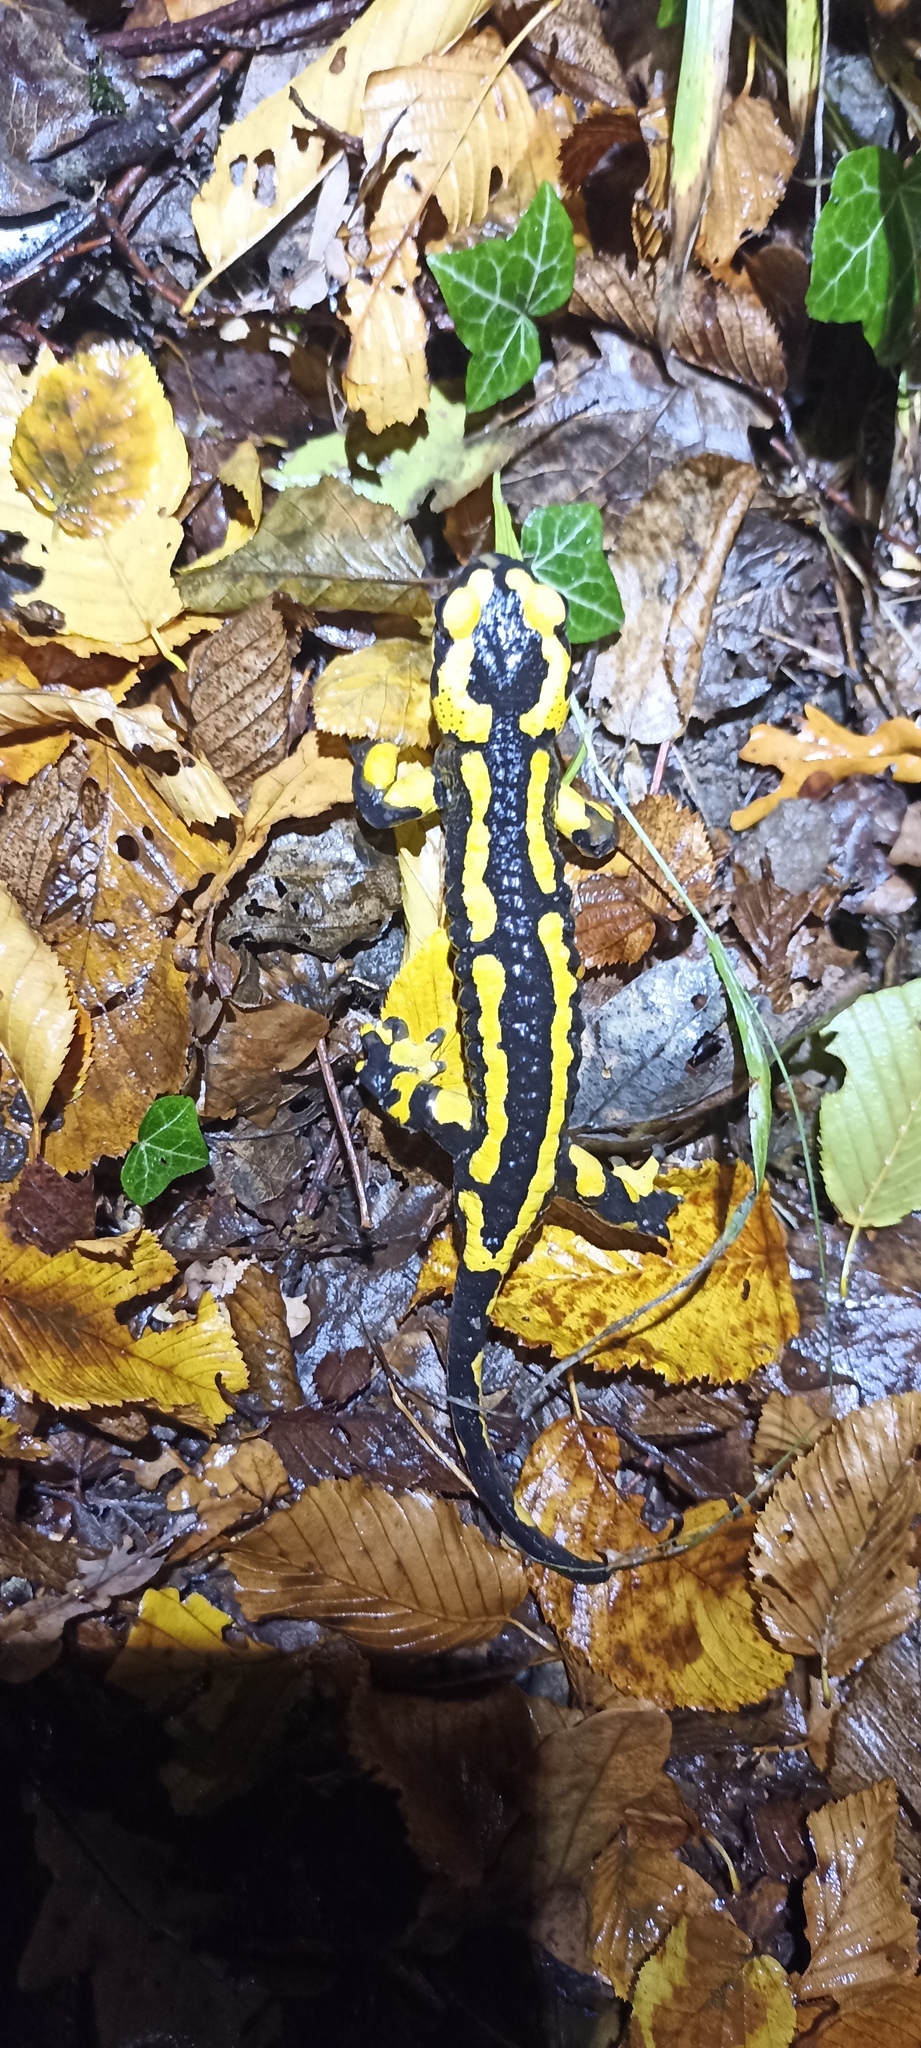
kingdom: Animalia
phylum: Chordata
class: Amphibia
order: Caudata
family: Salamandridae
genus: Salamandra
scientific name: Salamandra salamandra
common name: Fire salamander
